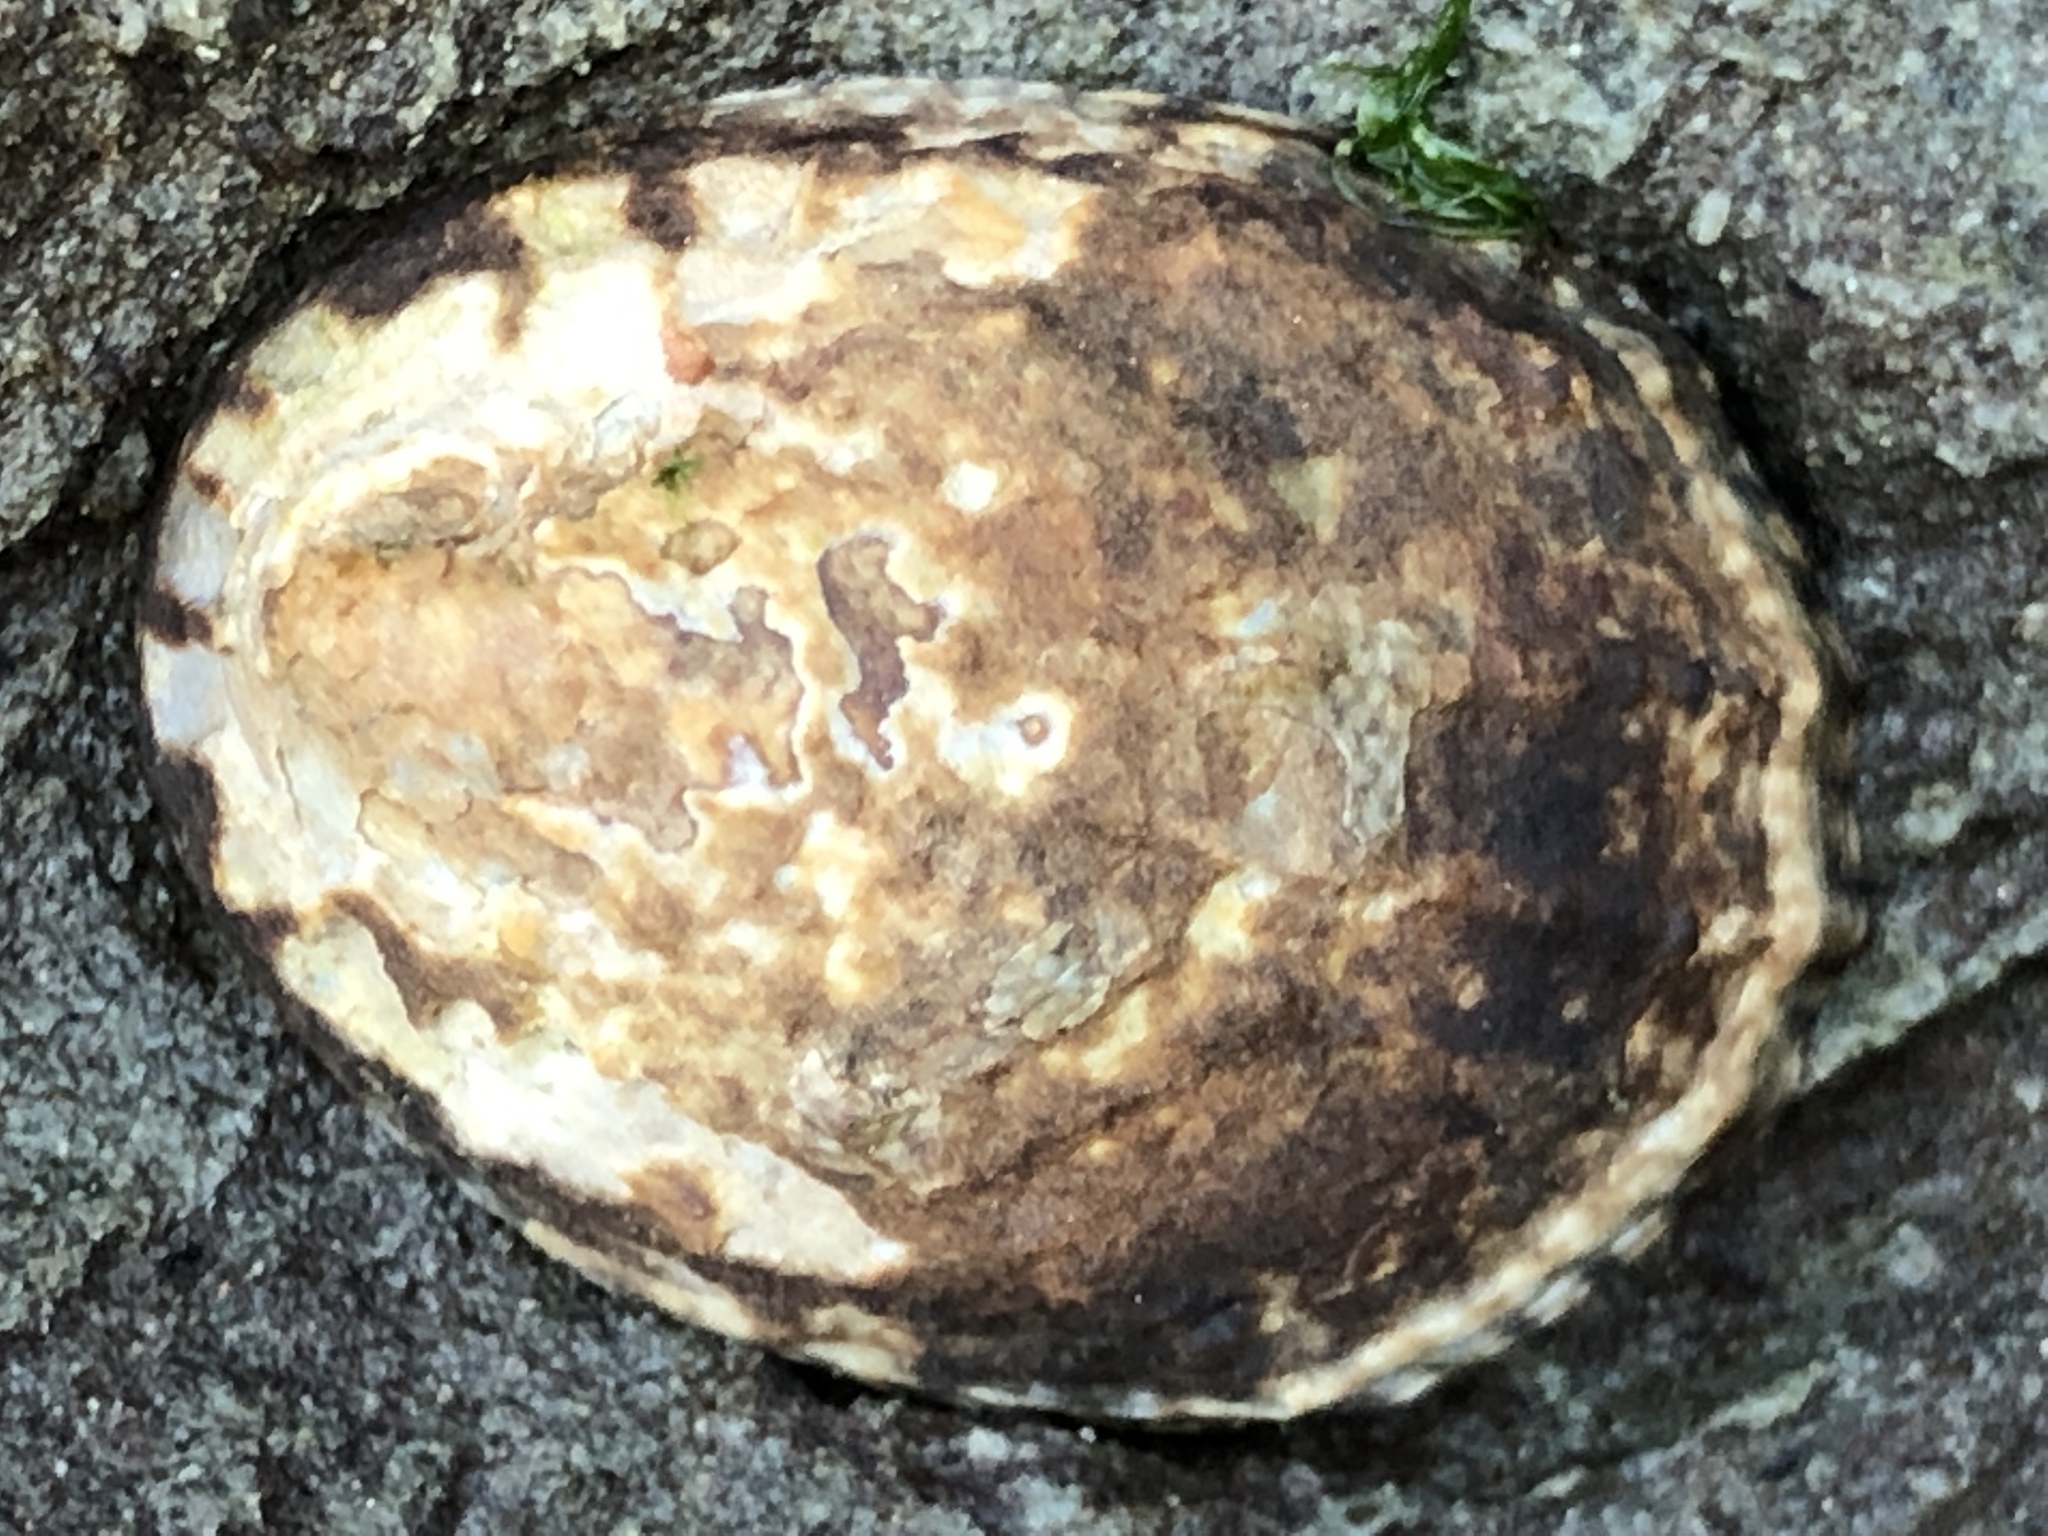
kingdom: Animalia
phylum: Mollusca
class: Gastropoda
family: Lottiidae
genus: Lottia
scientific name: Lottia gigantea
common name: Owl limpet
